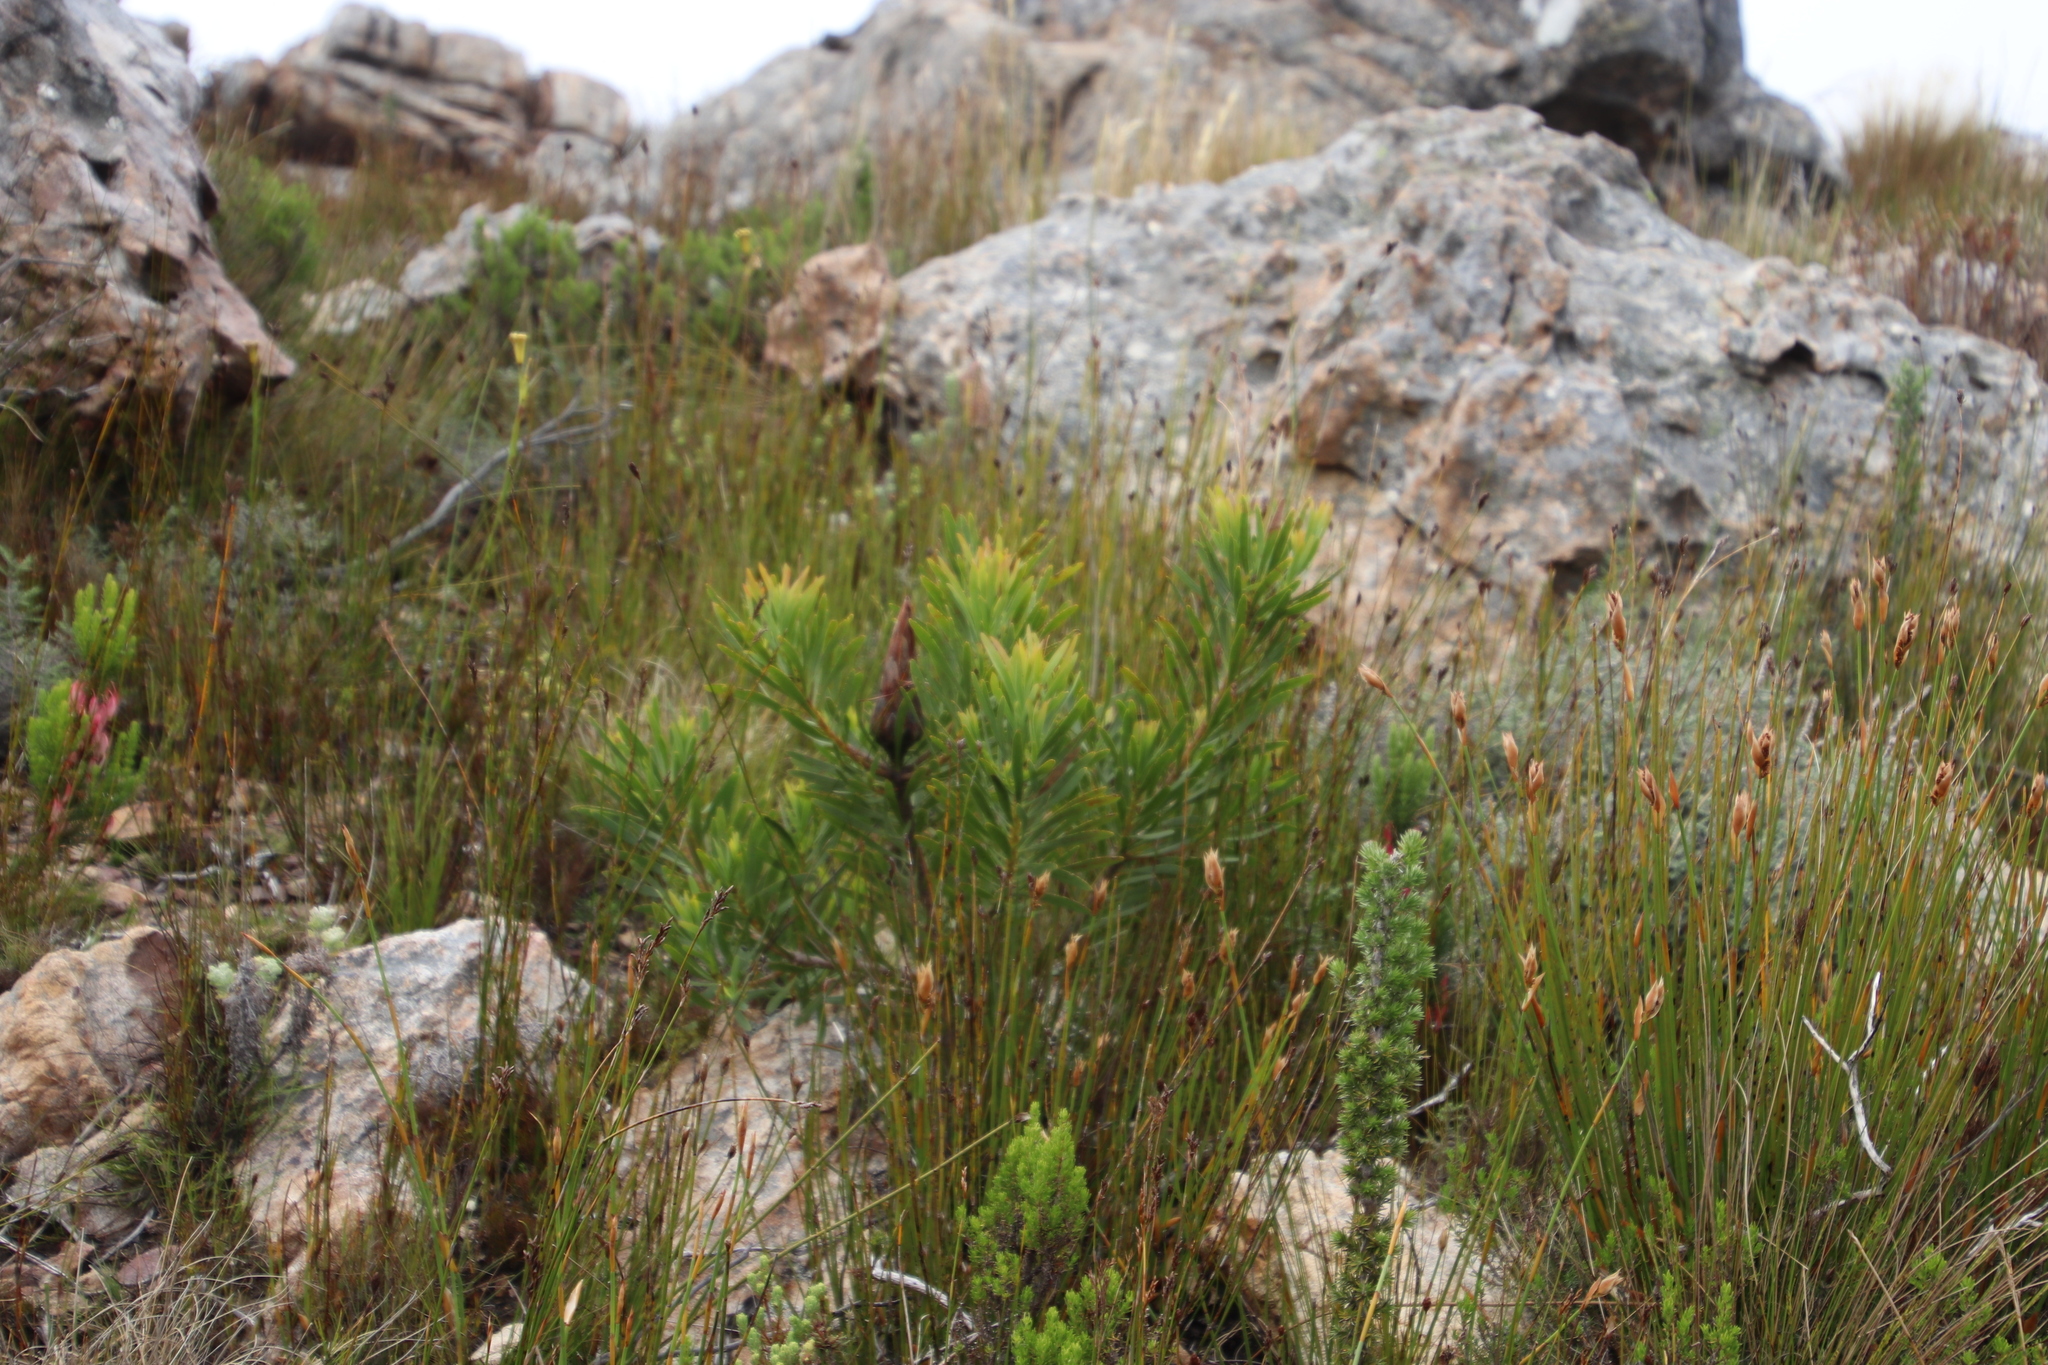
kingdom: Plantae
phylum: Tracheophyta
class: Magnoliopsida
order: Proteales
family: Proteaceae
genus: Protea
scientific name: Protea repens
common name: Sugarbush
